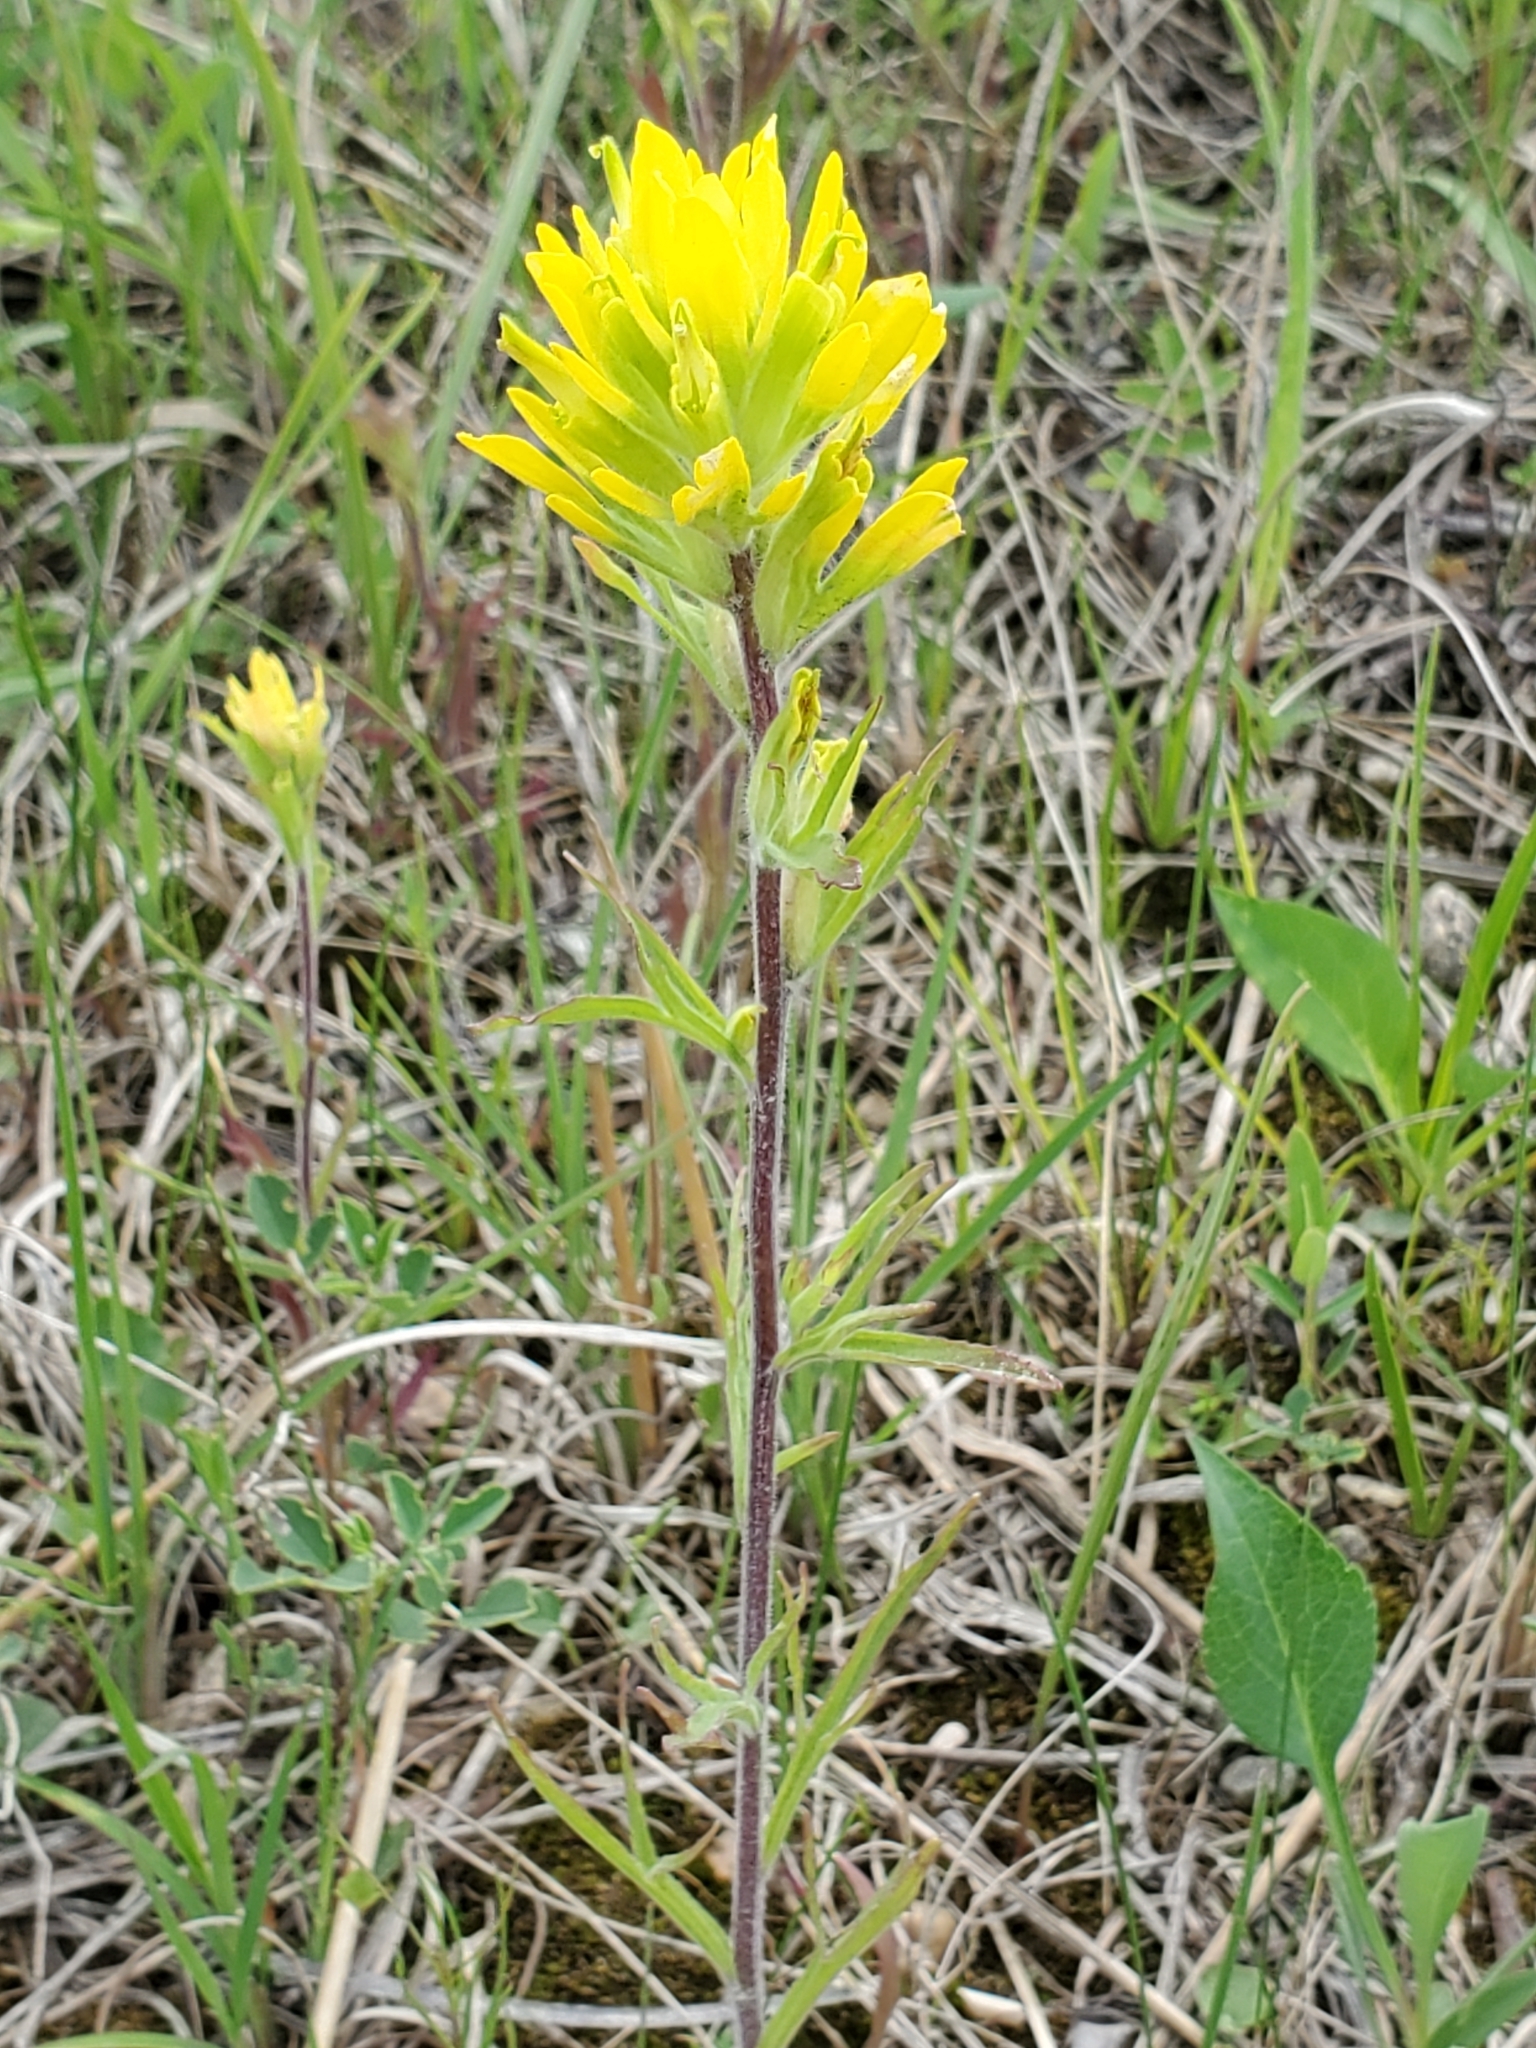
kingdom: Plantae
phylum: Tracheophyta
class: Magnoliopsida
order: Lamiales
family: Orobanchaceae
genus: Castilleja
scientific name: Castilleja coccinea
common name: Scarlet paintbrush
